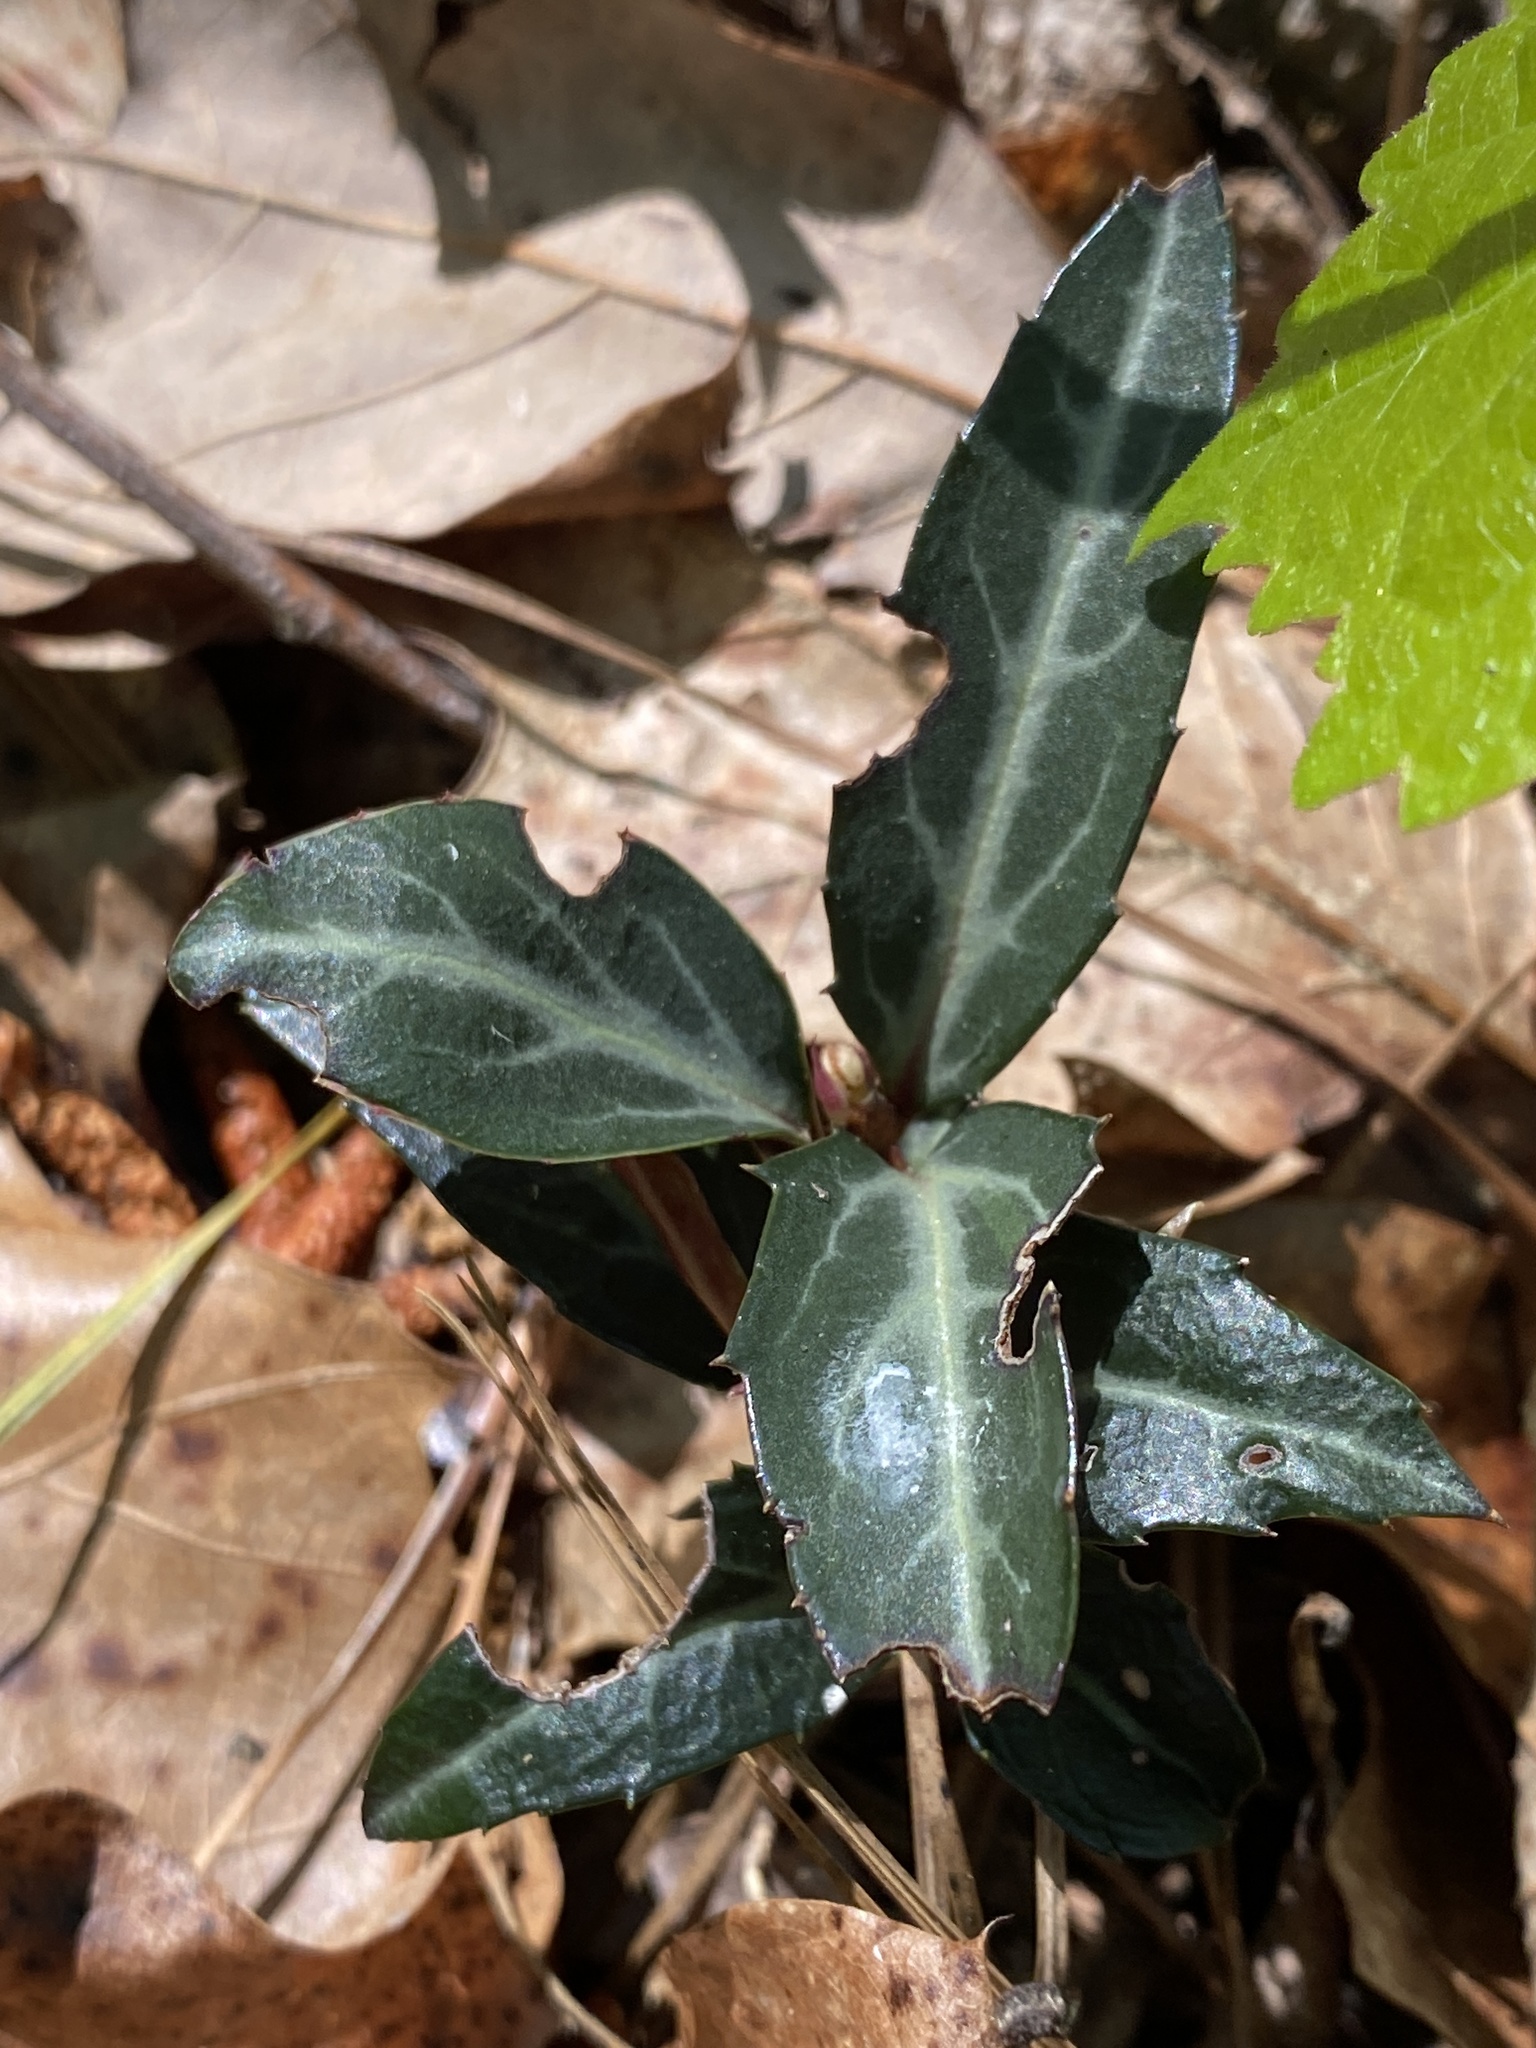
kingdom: Plantae
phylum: Tracheophyta
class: Magnoliopsida
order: Ericales
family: Ericaceae
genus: Chimaphila
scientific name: Chimaphila maculata
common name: Spotted pipsissewa
